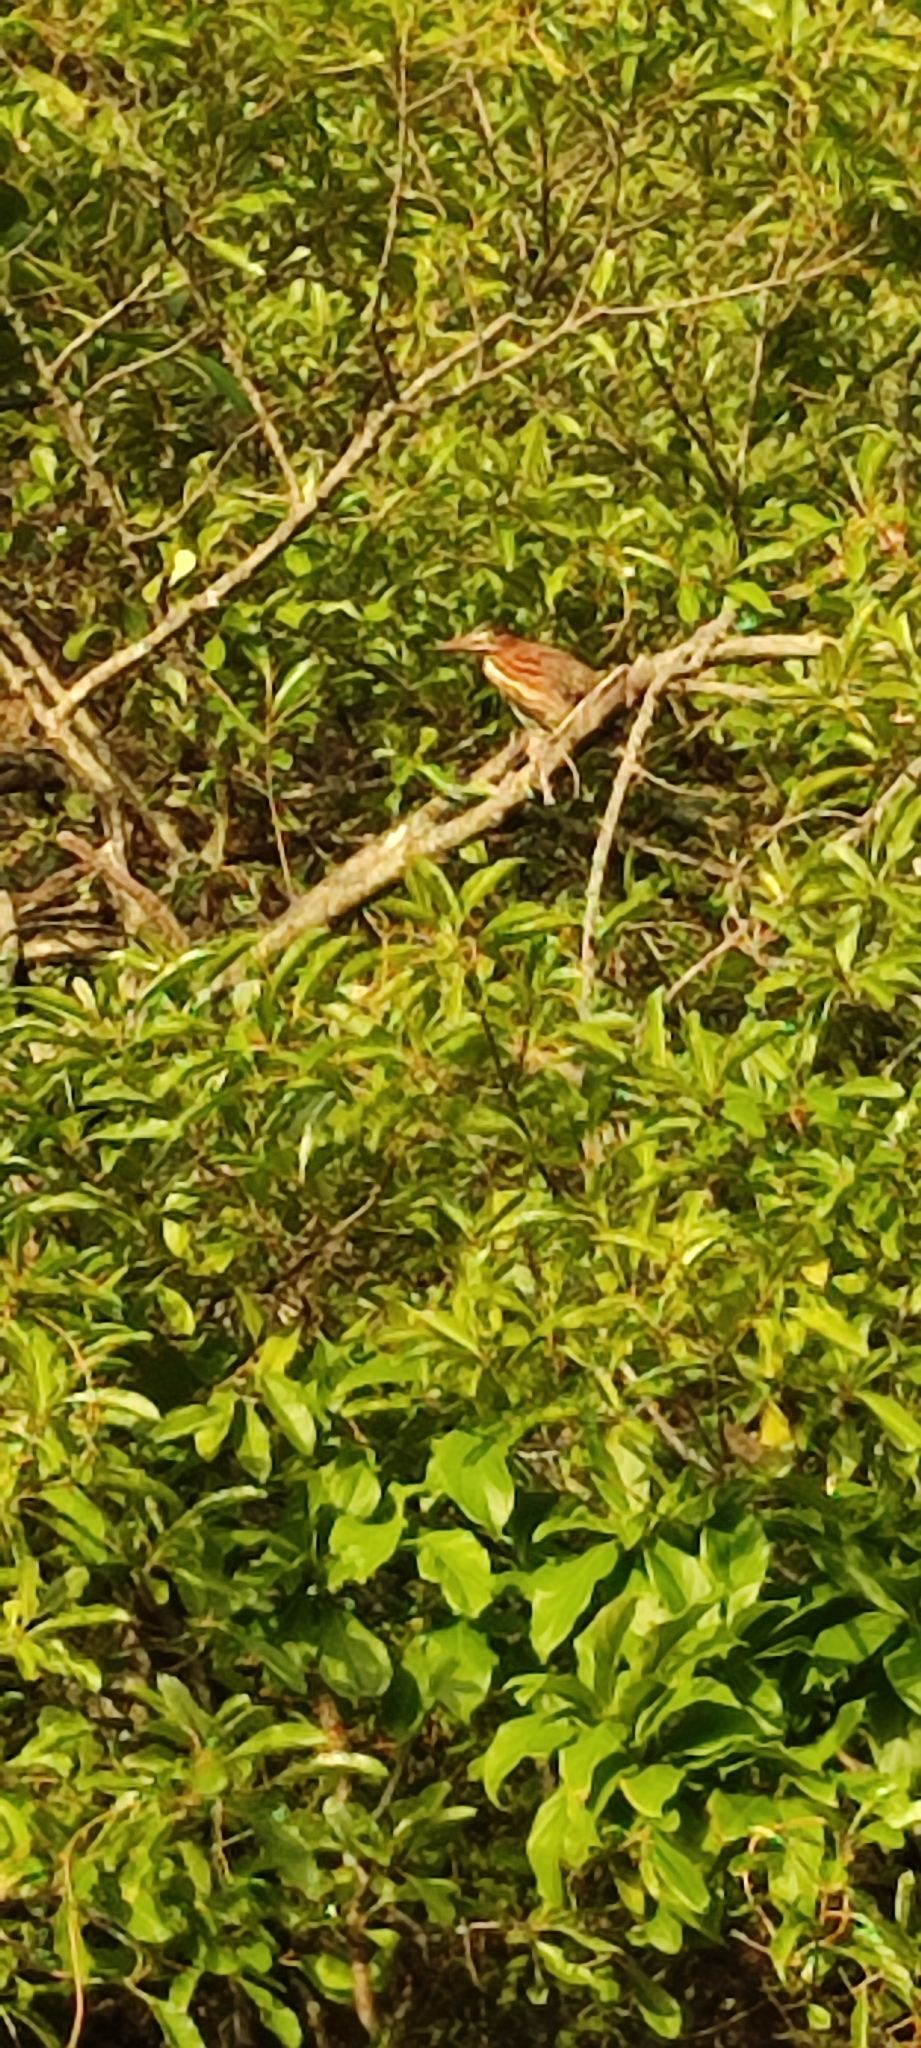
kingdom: Animalia
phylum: Chordata
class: Aves
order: Pelecaniformes
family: Ardeidae
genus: Butorides
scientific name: Butorides virescens
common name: Green heron
